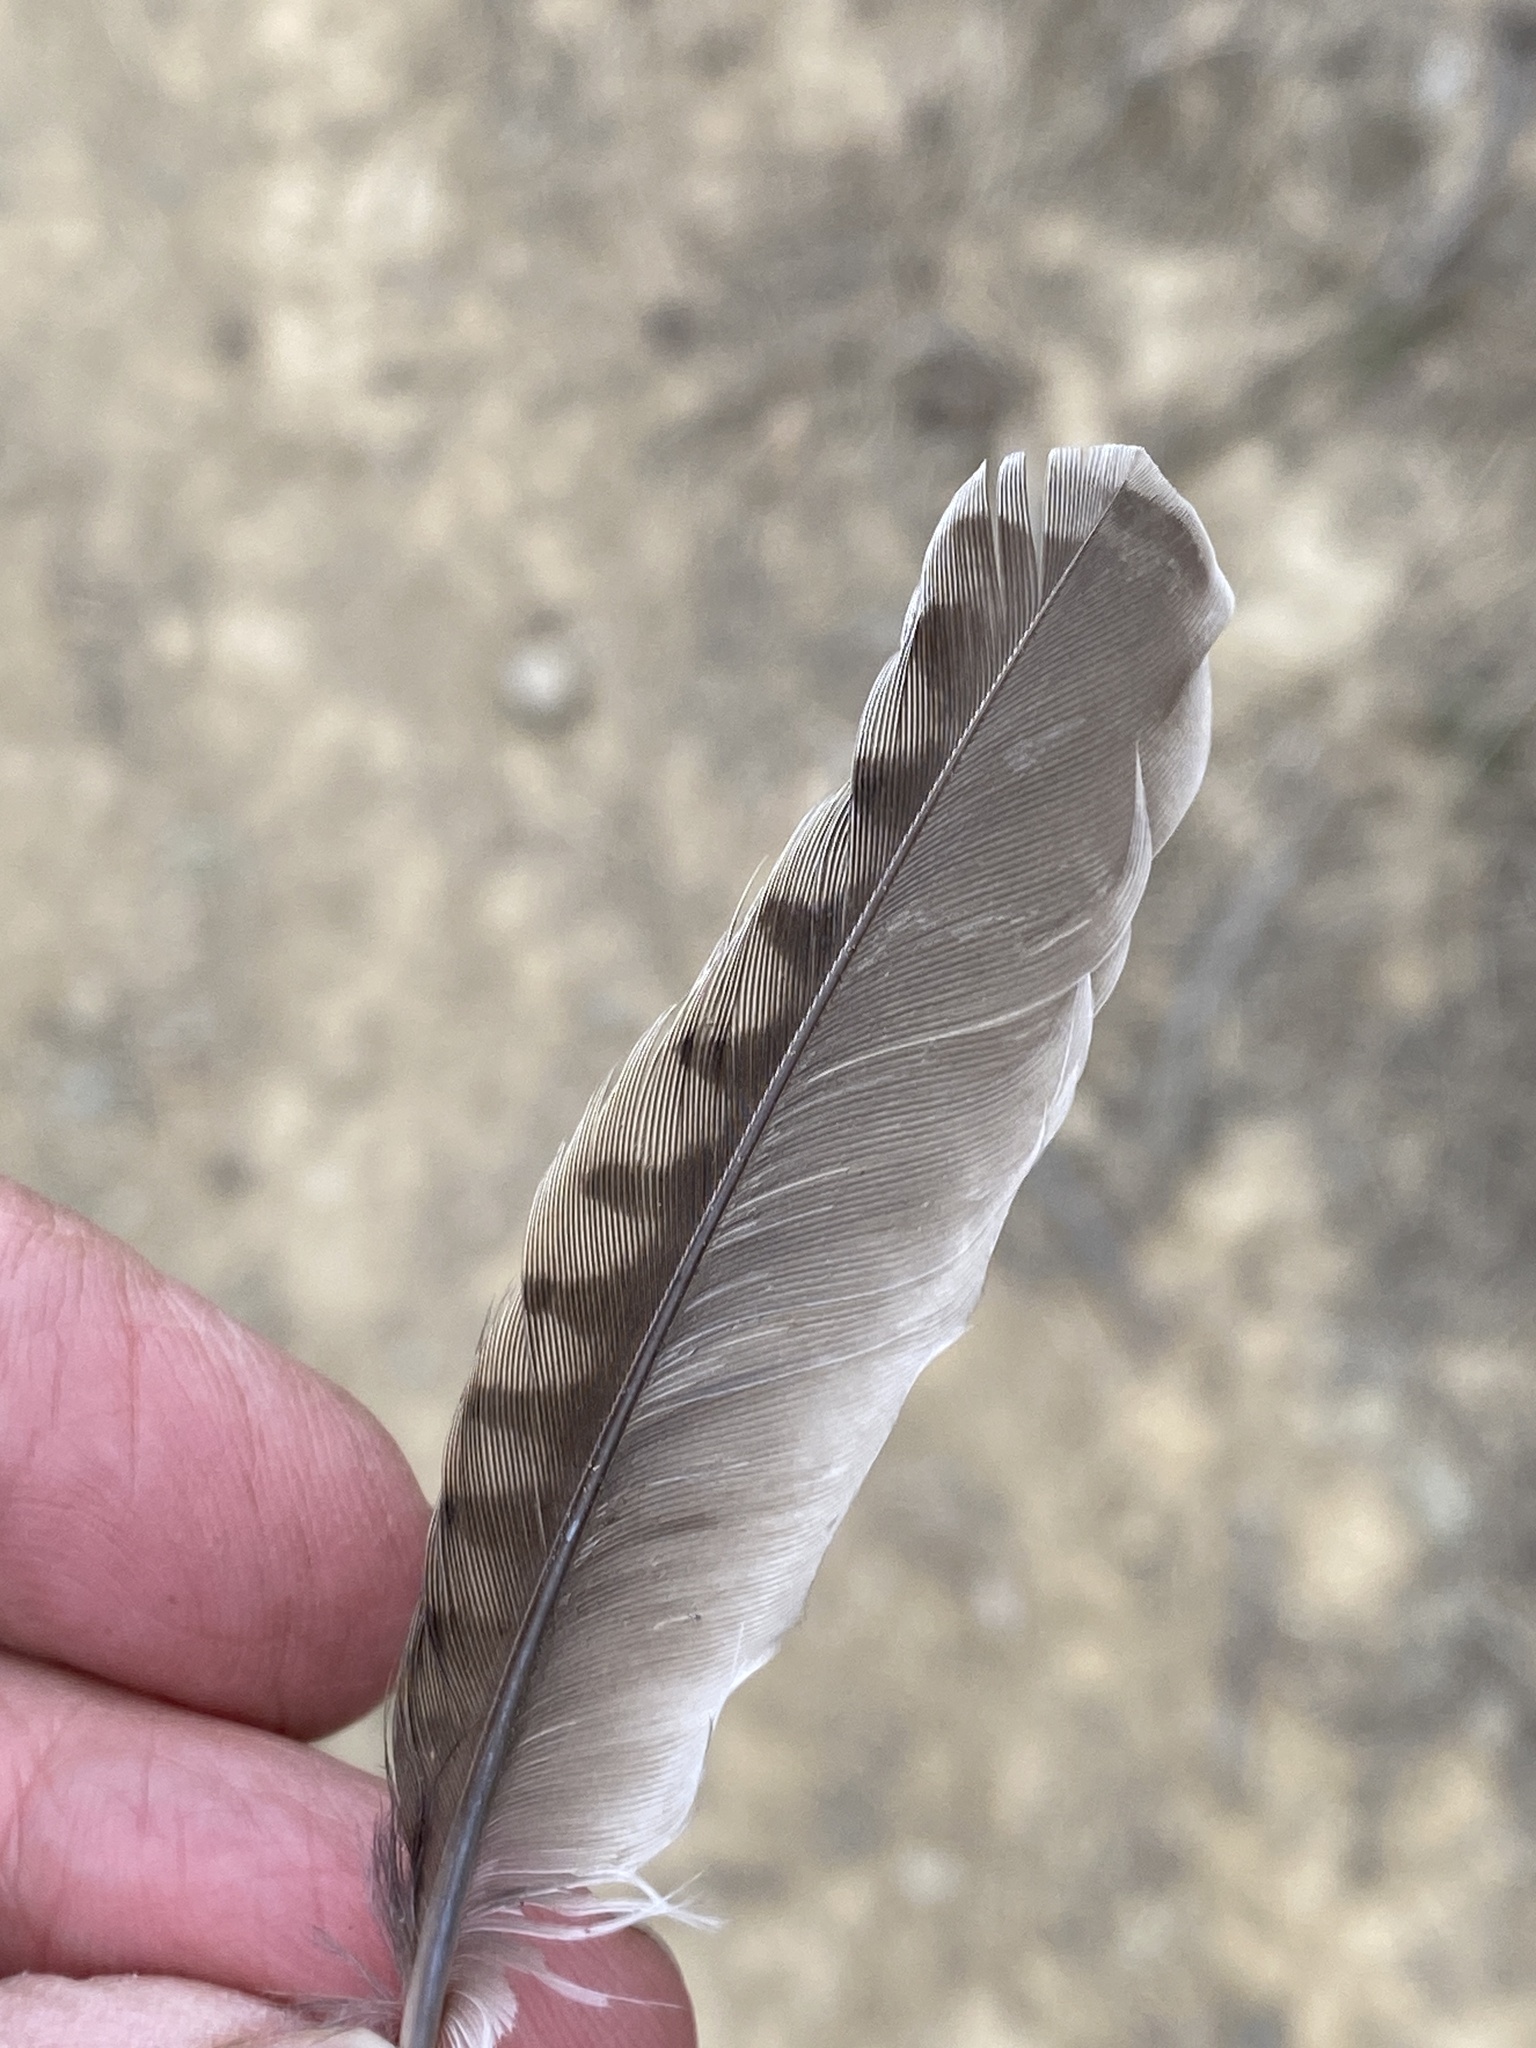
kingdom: Animalia
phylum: Chordata
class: Aves
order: Passeriformes
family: Icteridae
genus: Sturnella
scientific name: Sturnella neglecta
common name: Western meadowlark
